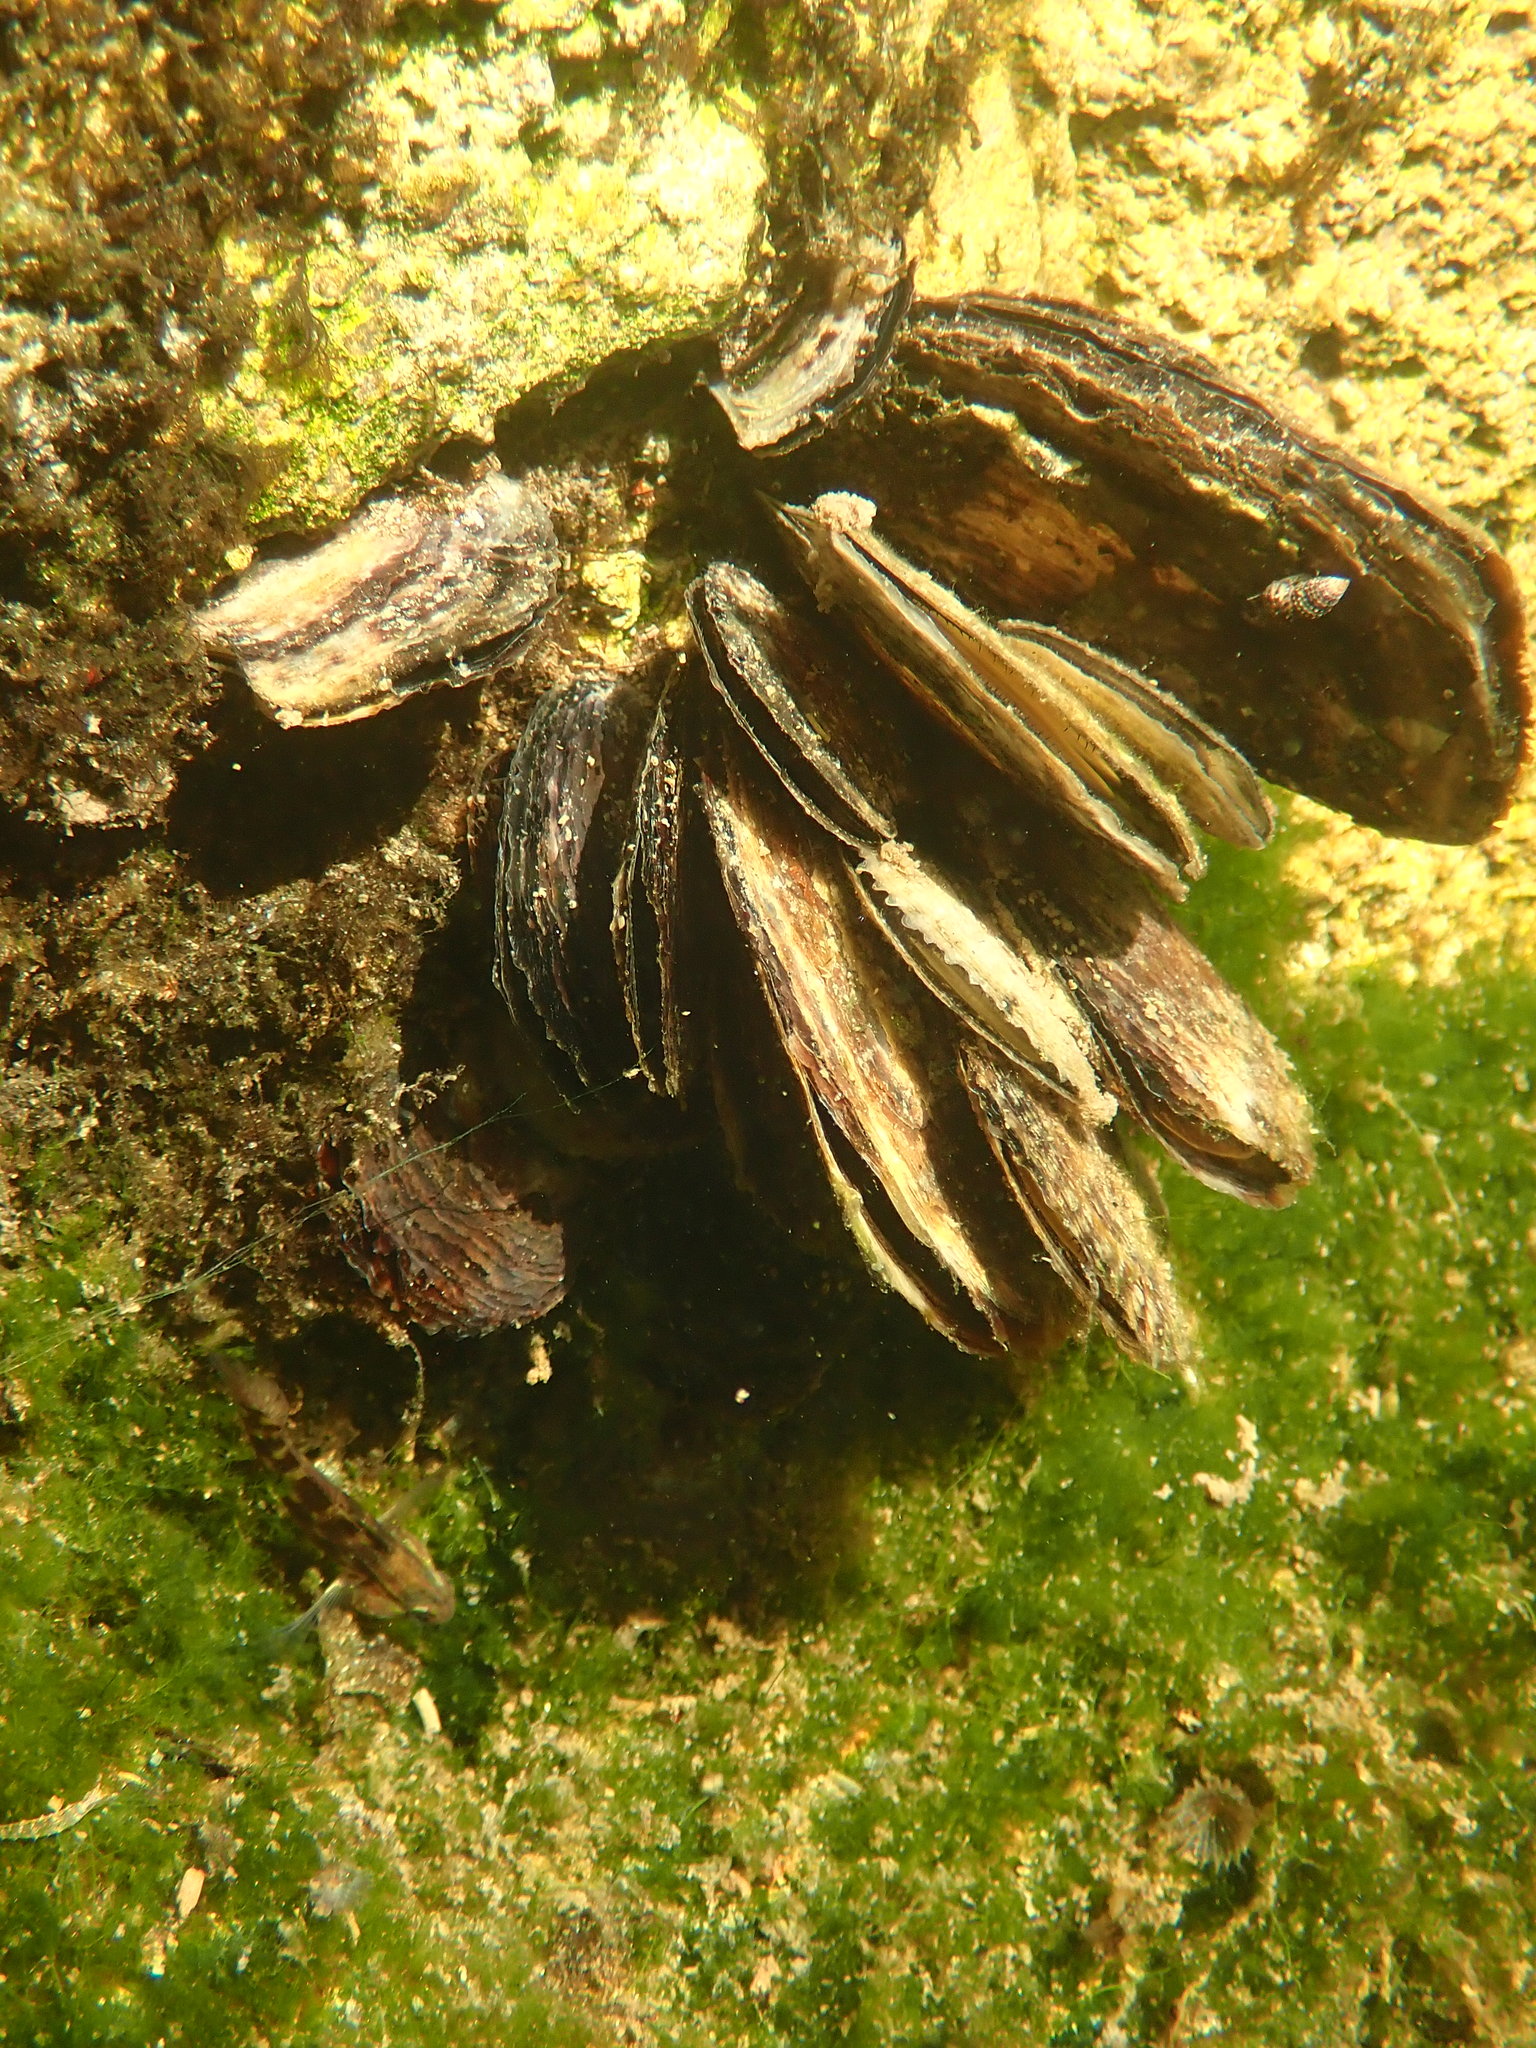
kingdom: Animalia
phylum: Mollusca
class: Bivalvia
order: Ostreida
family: Isognomonidae
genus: Isognomon
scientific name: Isognomon alatus
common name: Flat tree-oyster
